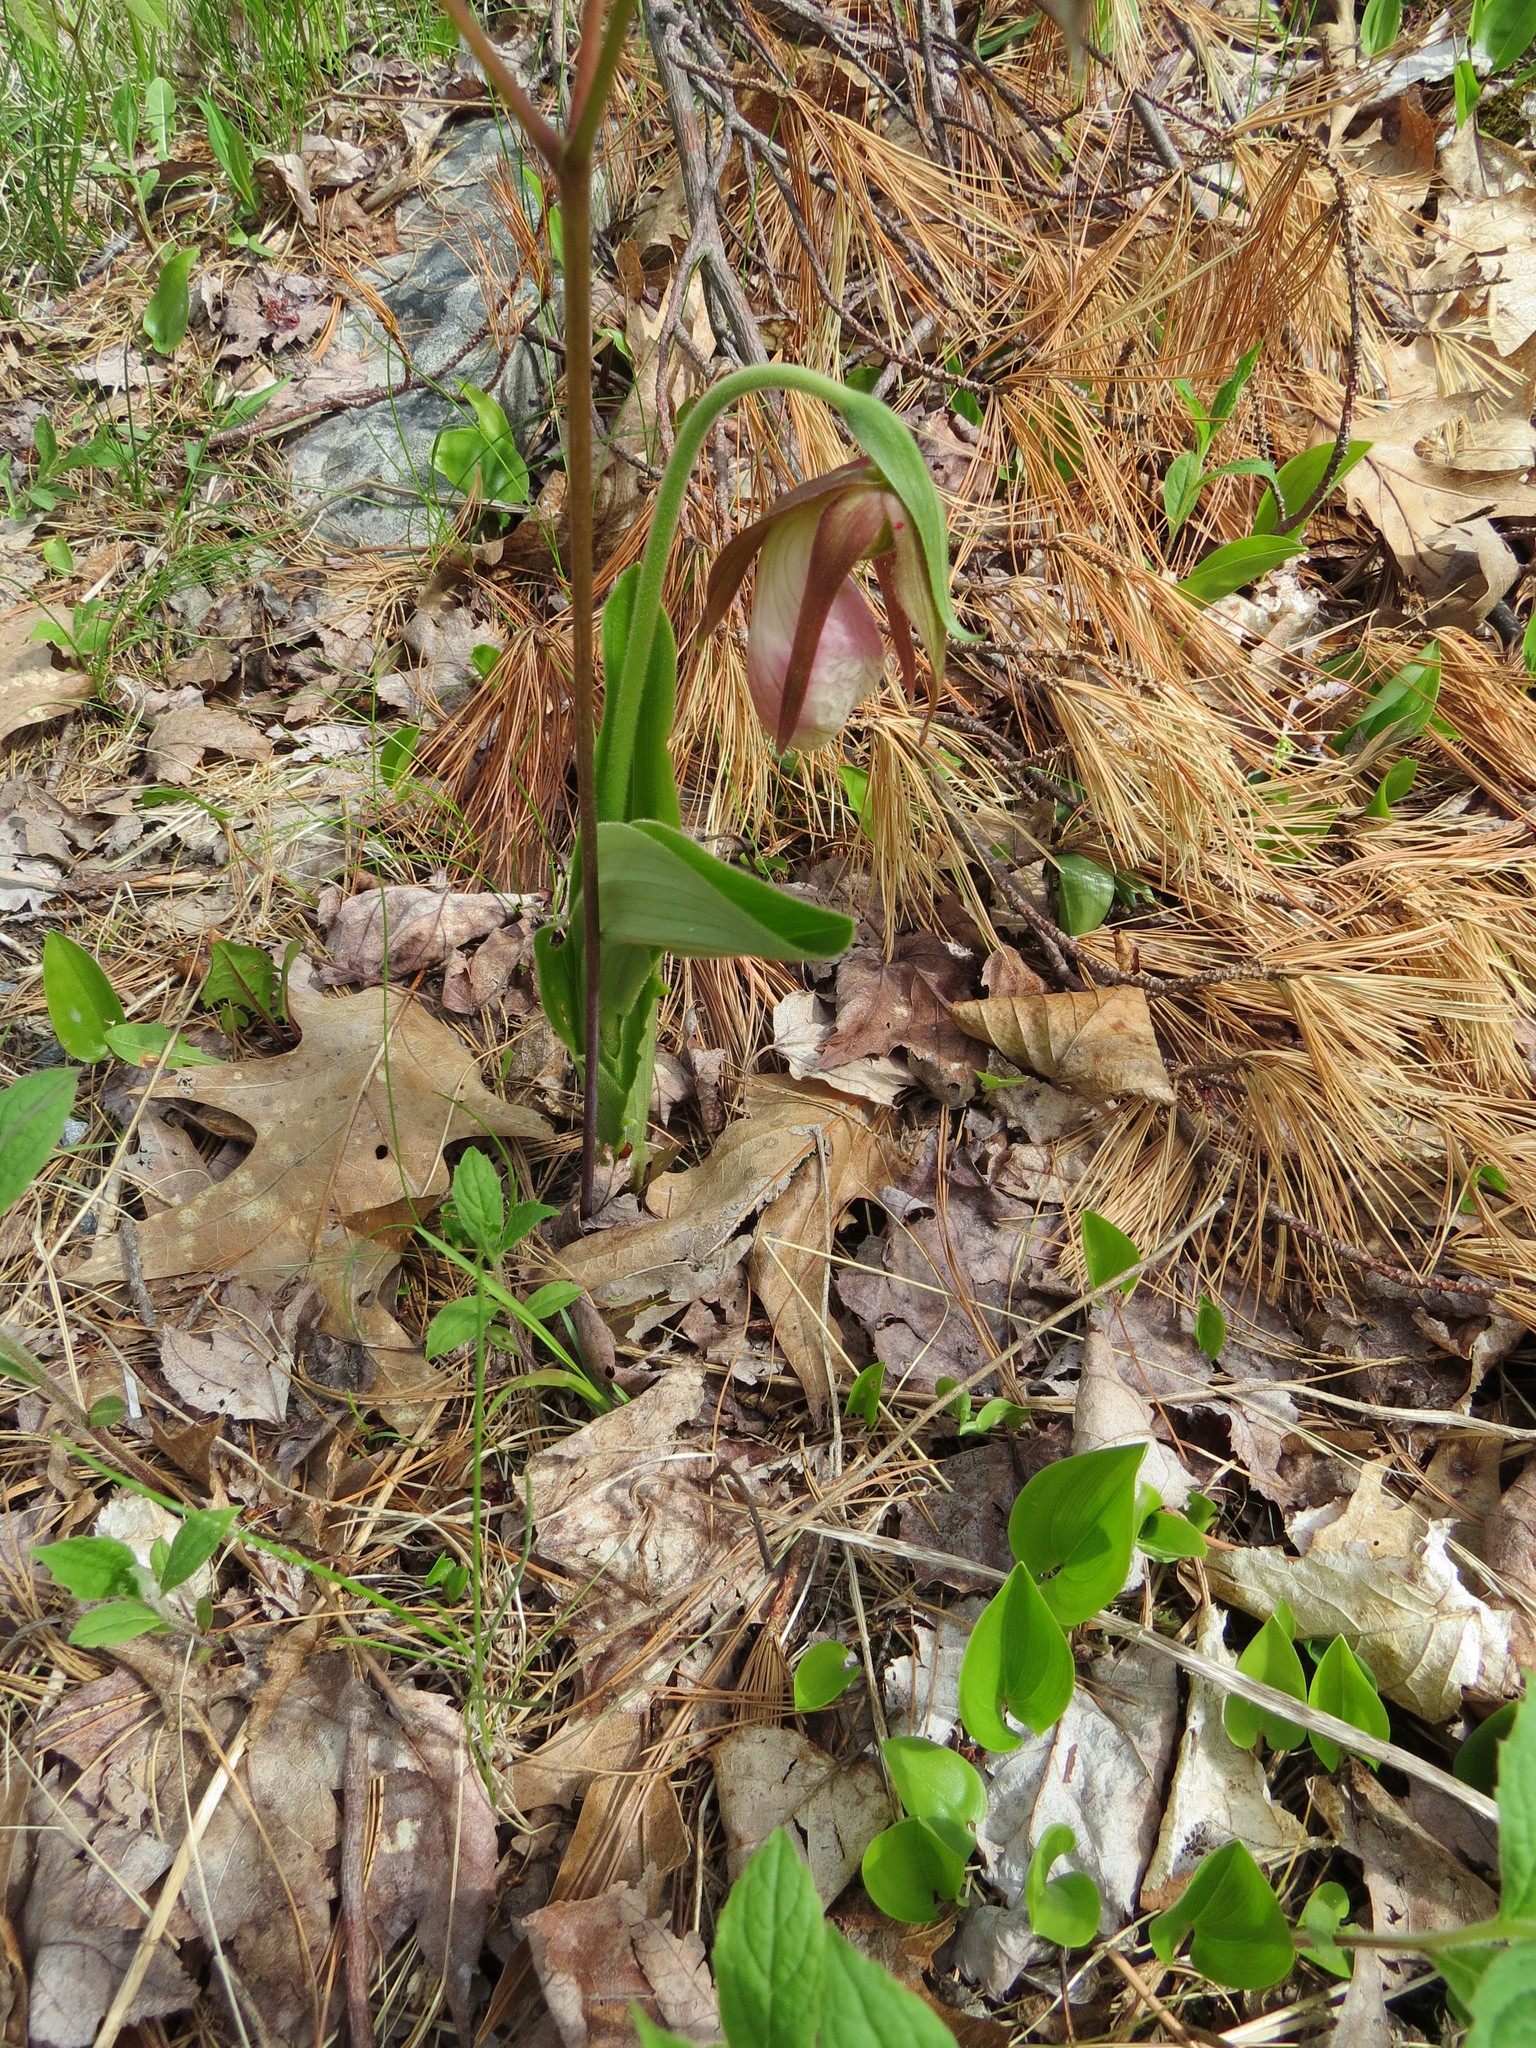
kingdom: Plantae
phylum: Tracheophyta
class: Liliopsida
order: Asparagales
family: Orchidaceae
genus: Cypripedium
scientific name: Cypripedium acaule
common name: Pink lady's-slipper
